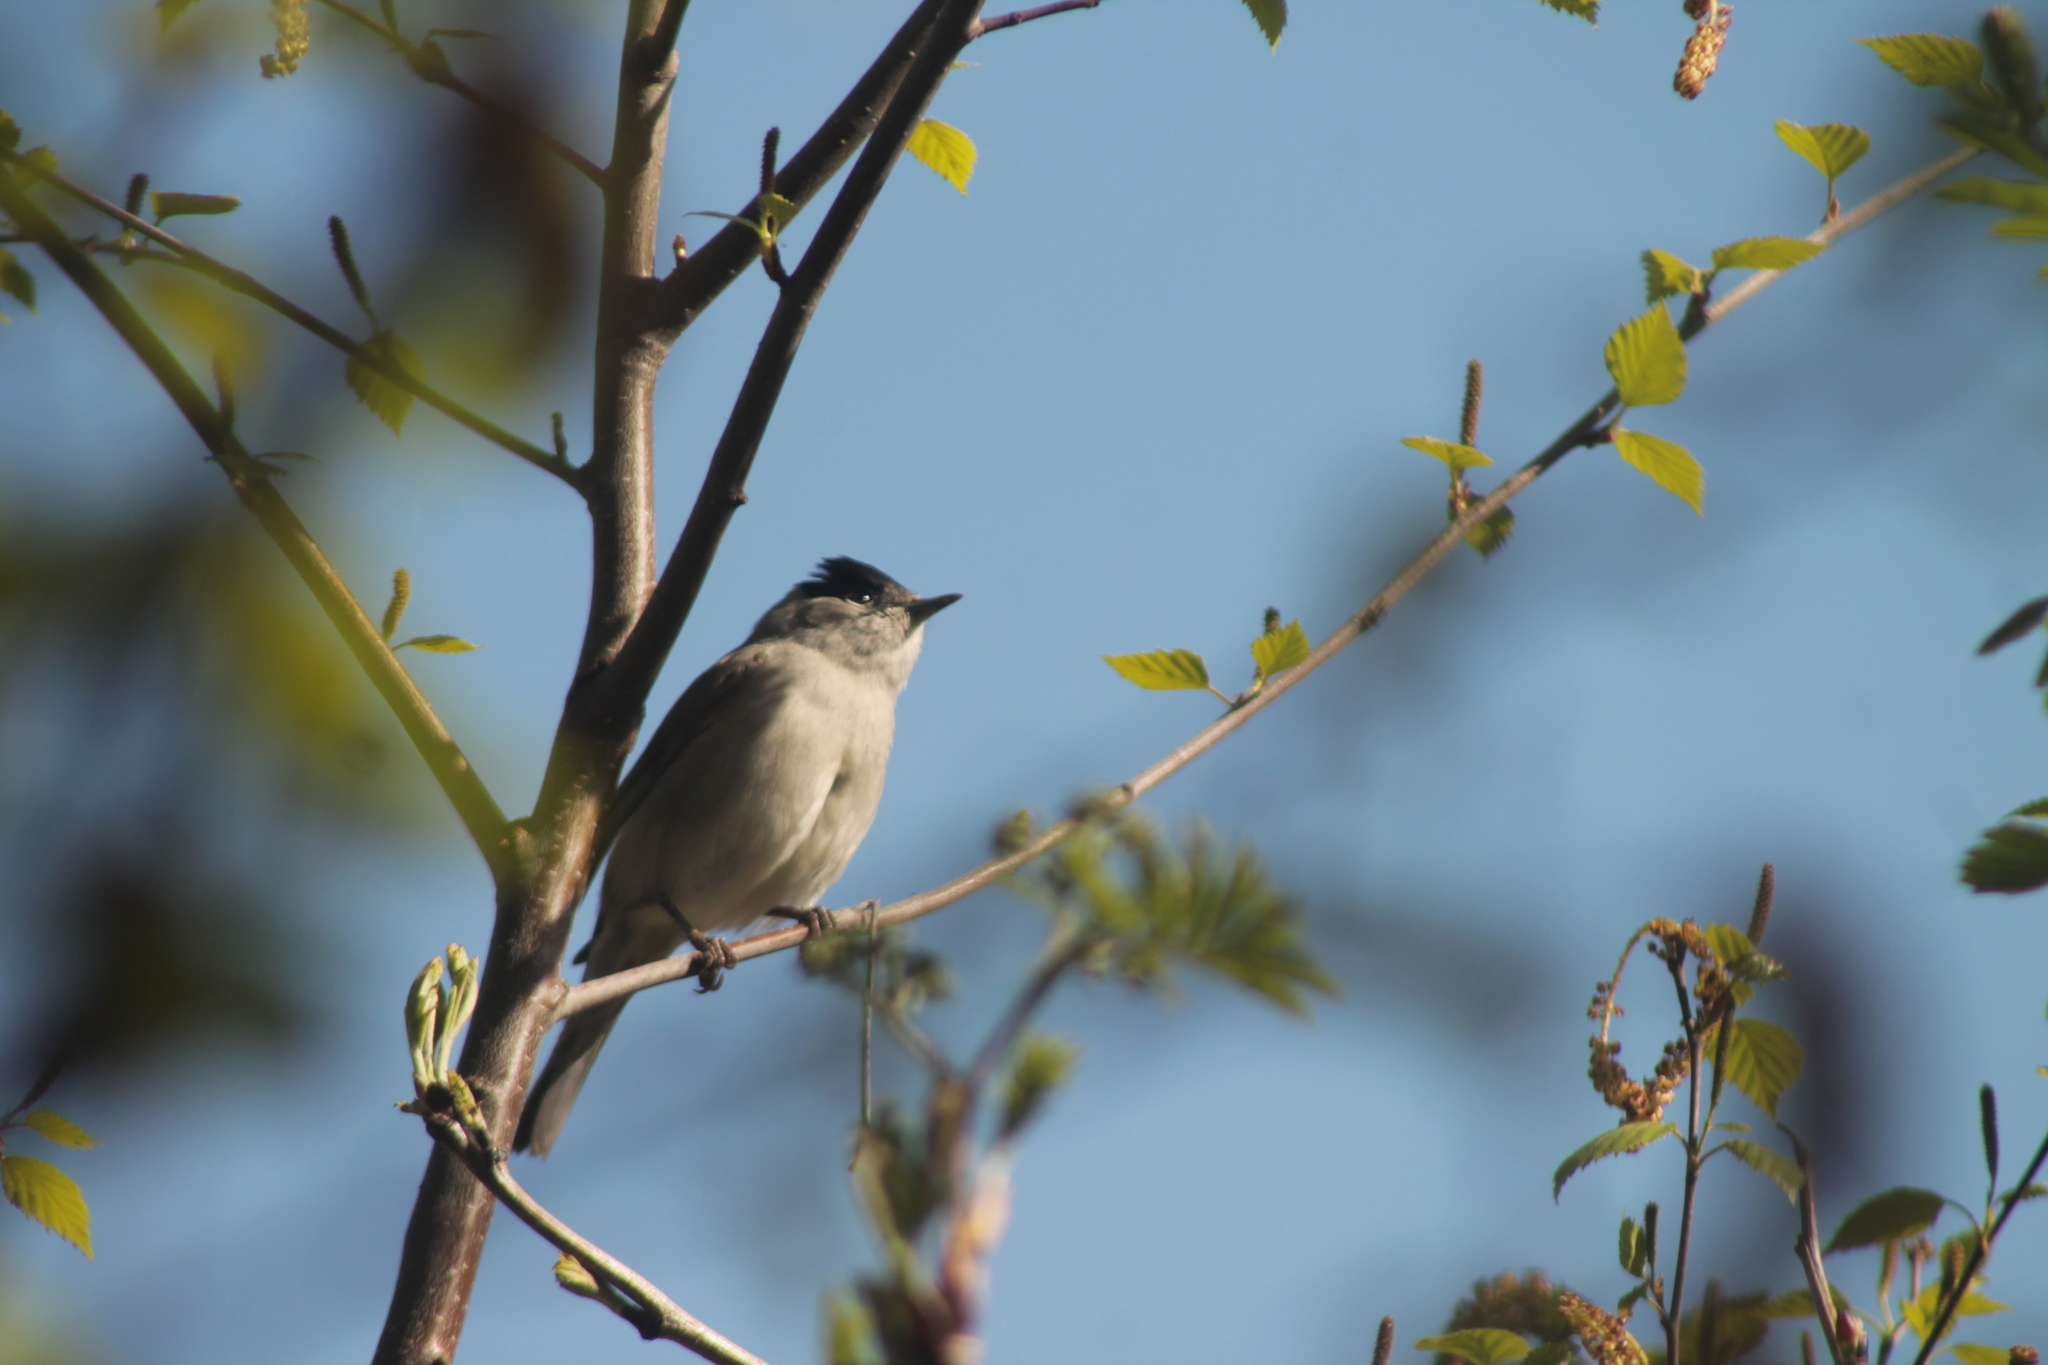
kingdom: Animalia
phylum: Chordata
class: Aves
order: Passeriformes
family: Sylviidae
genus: Sylvia
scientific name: Sylvia atricapilla
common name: Eurasian blackcap
